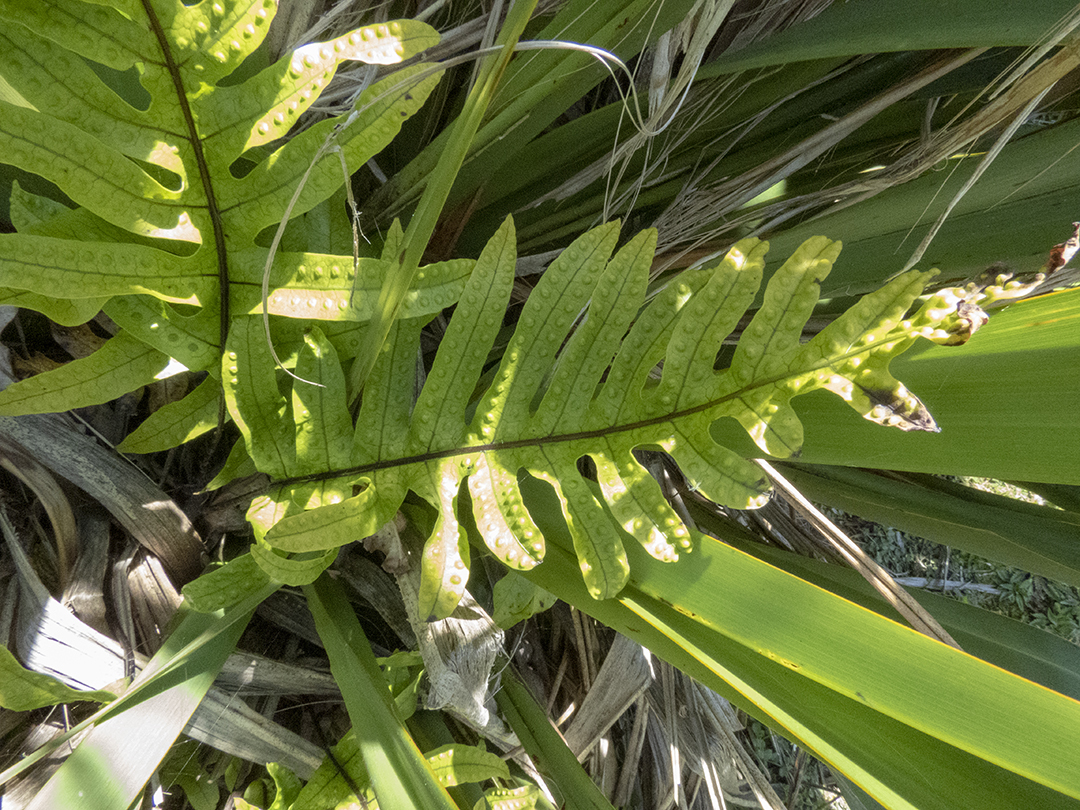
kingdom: Plantae
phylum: Tracheophyta
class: Polypodiopsida
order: Polypodiales
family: Polypodiaceae
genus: Lecanopteris
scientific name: Lecanopteris pustulata
